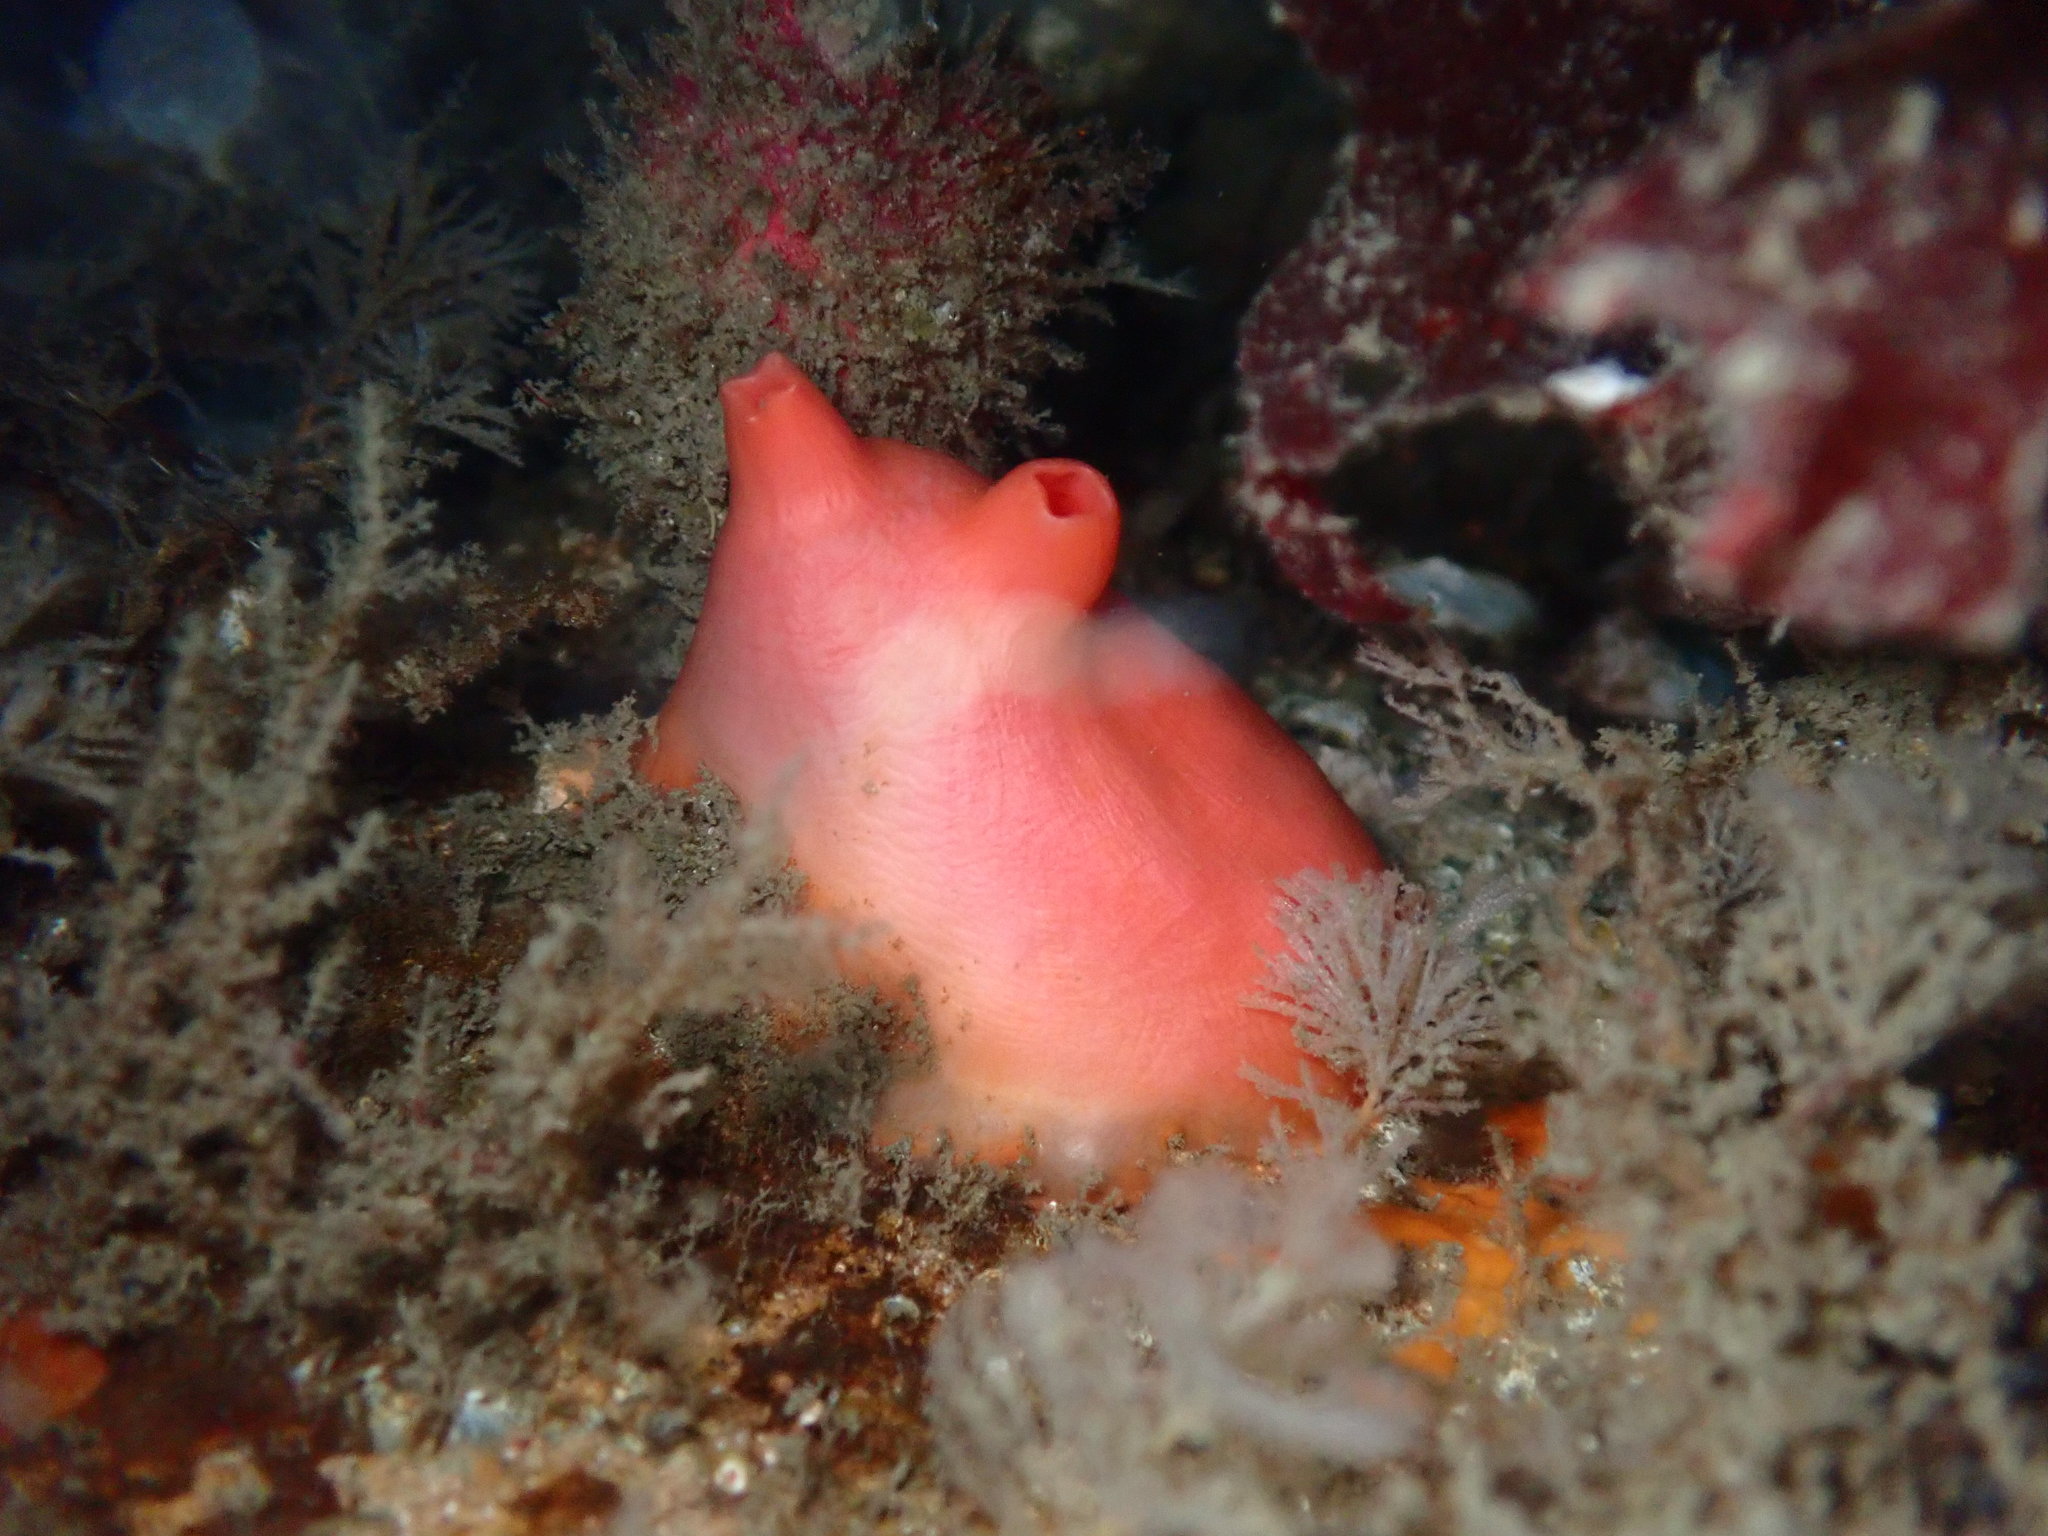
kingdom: Animalia
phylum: Chordata
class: Ascidiacea
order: Stolidobranchia
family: Styelidae
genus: Cnemidocarpa
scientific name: Cnemidocarpa finmarkiensis
